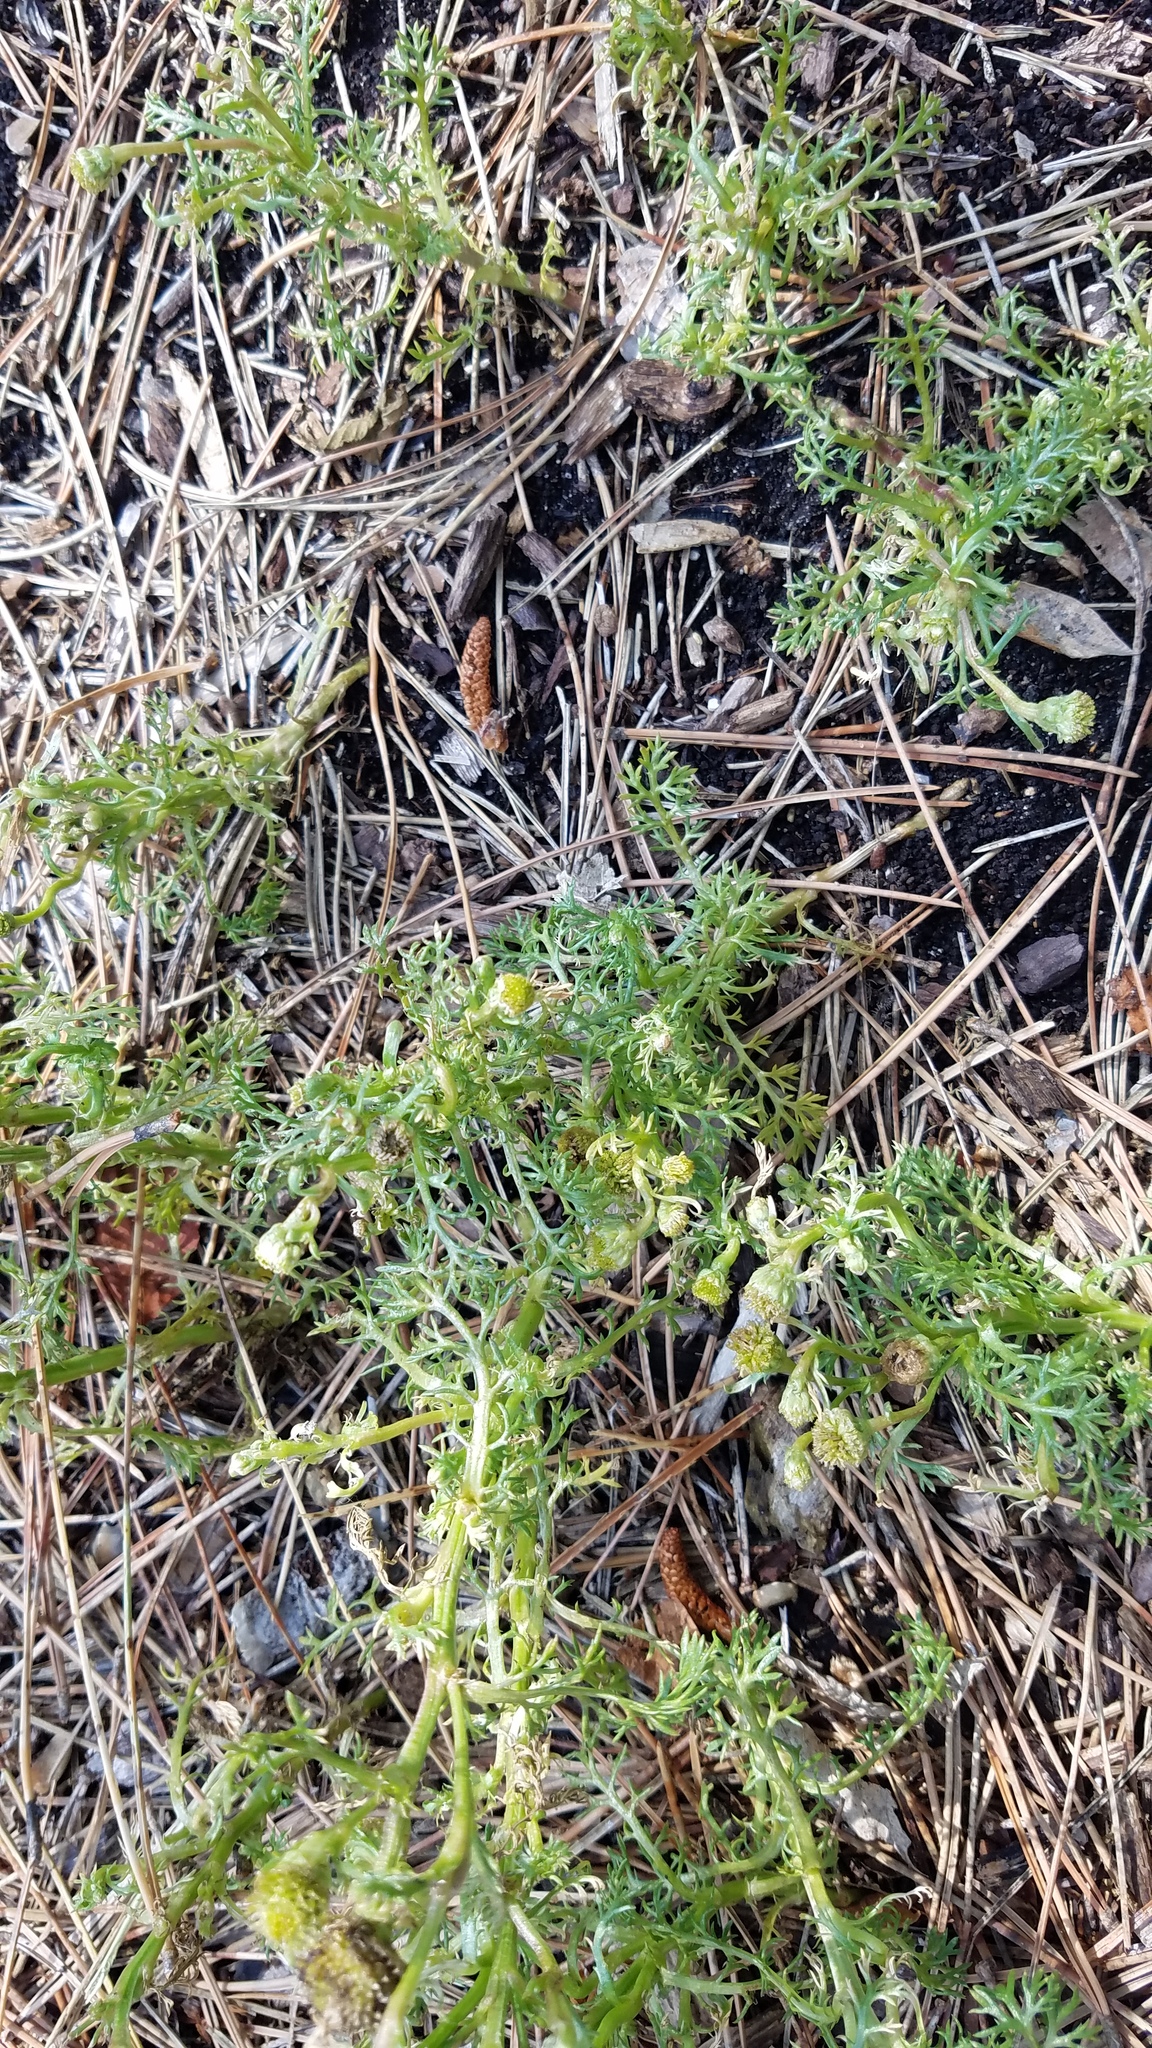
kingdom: Plantae
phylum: Tracheophyta
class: Magnoliopsida
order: Asterales
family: Asteraceae
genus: Matricaria
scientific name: Matricaria discoidea
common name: Disc mayweed
